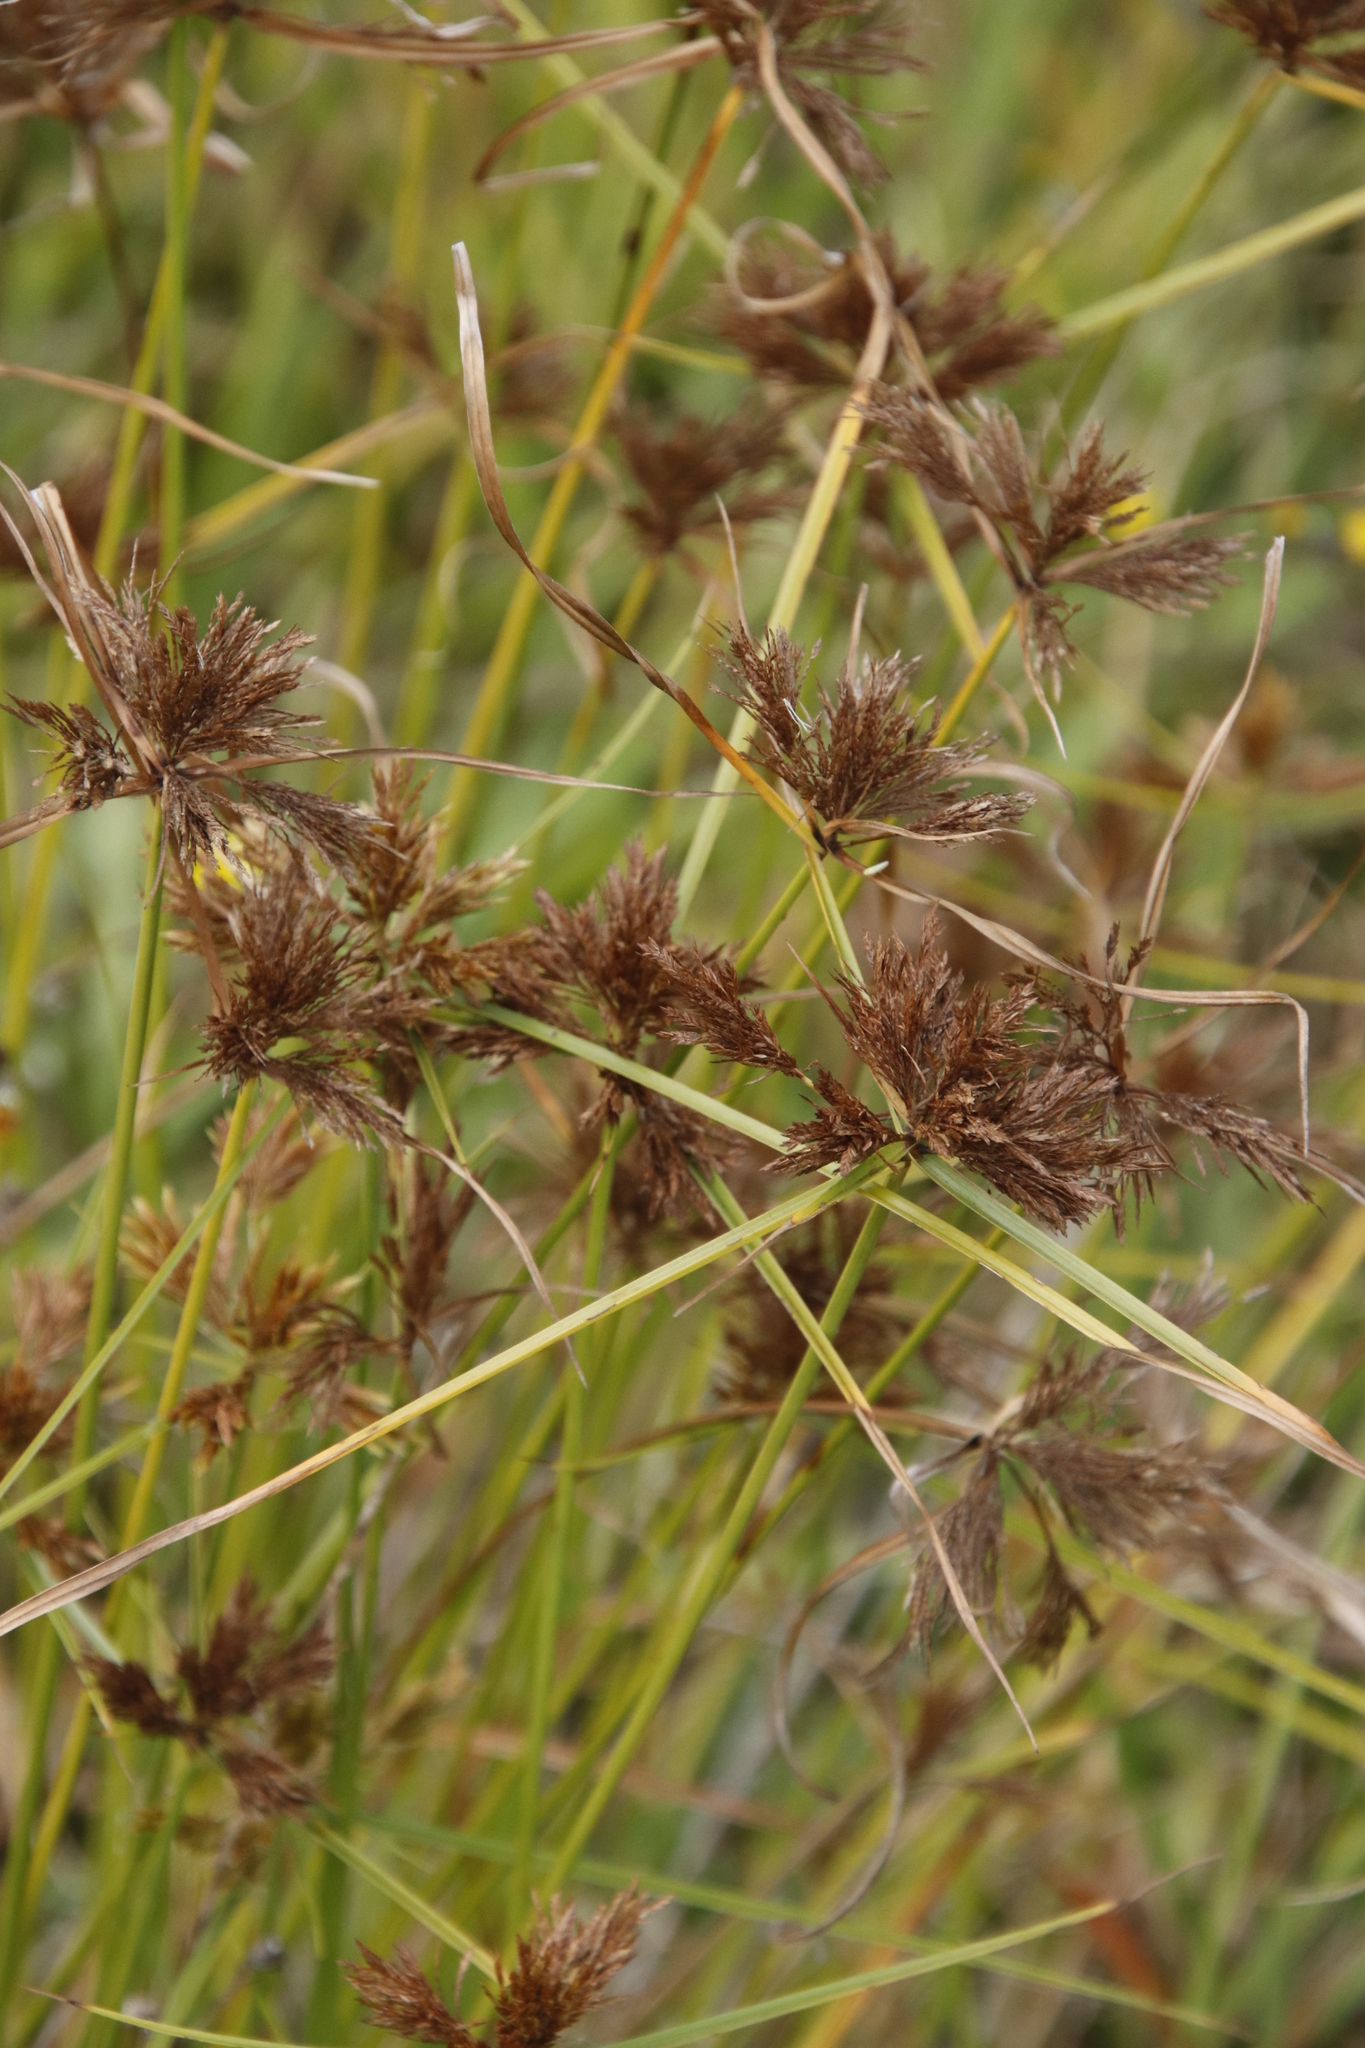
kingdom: Plantae
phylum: Tracheophyta
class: Liliopsida
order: Poales
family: Cyperaceae
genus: Cyperus
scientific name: Cyperus polystachyos
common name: Bunchy flat sedge
